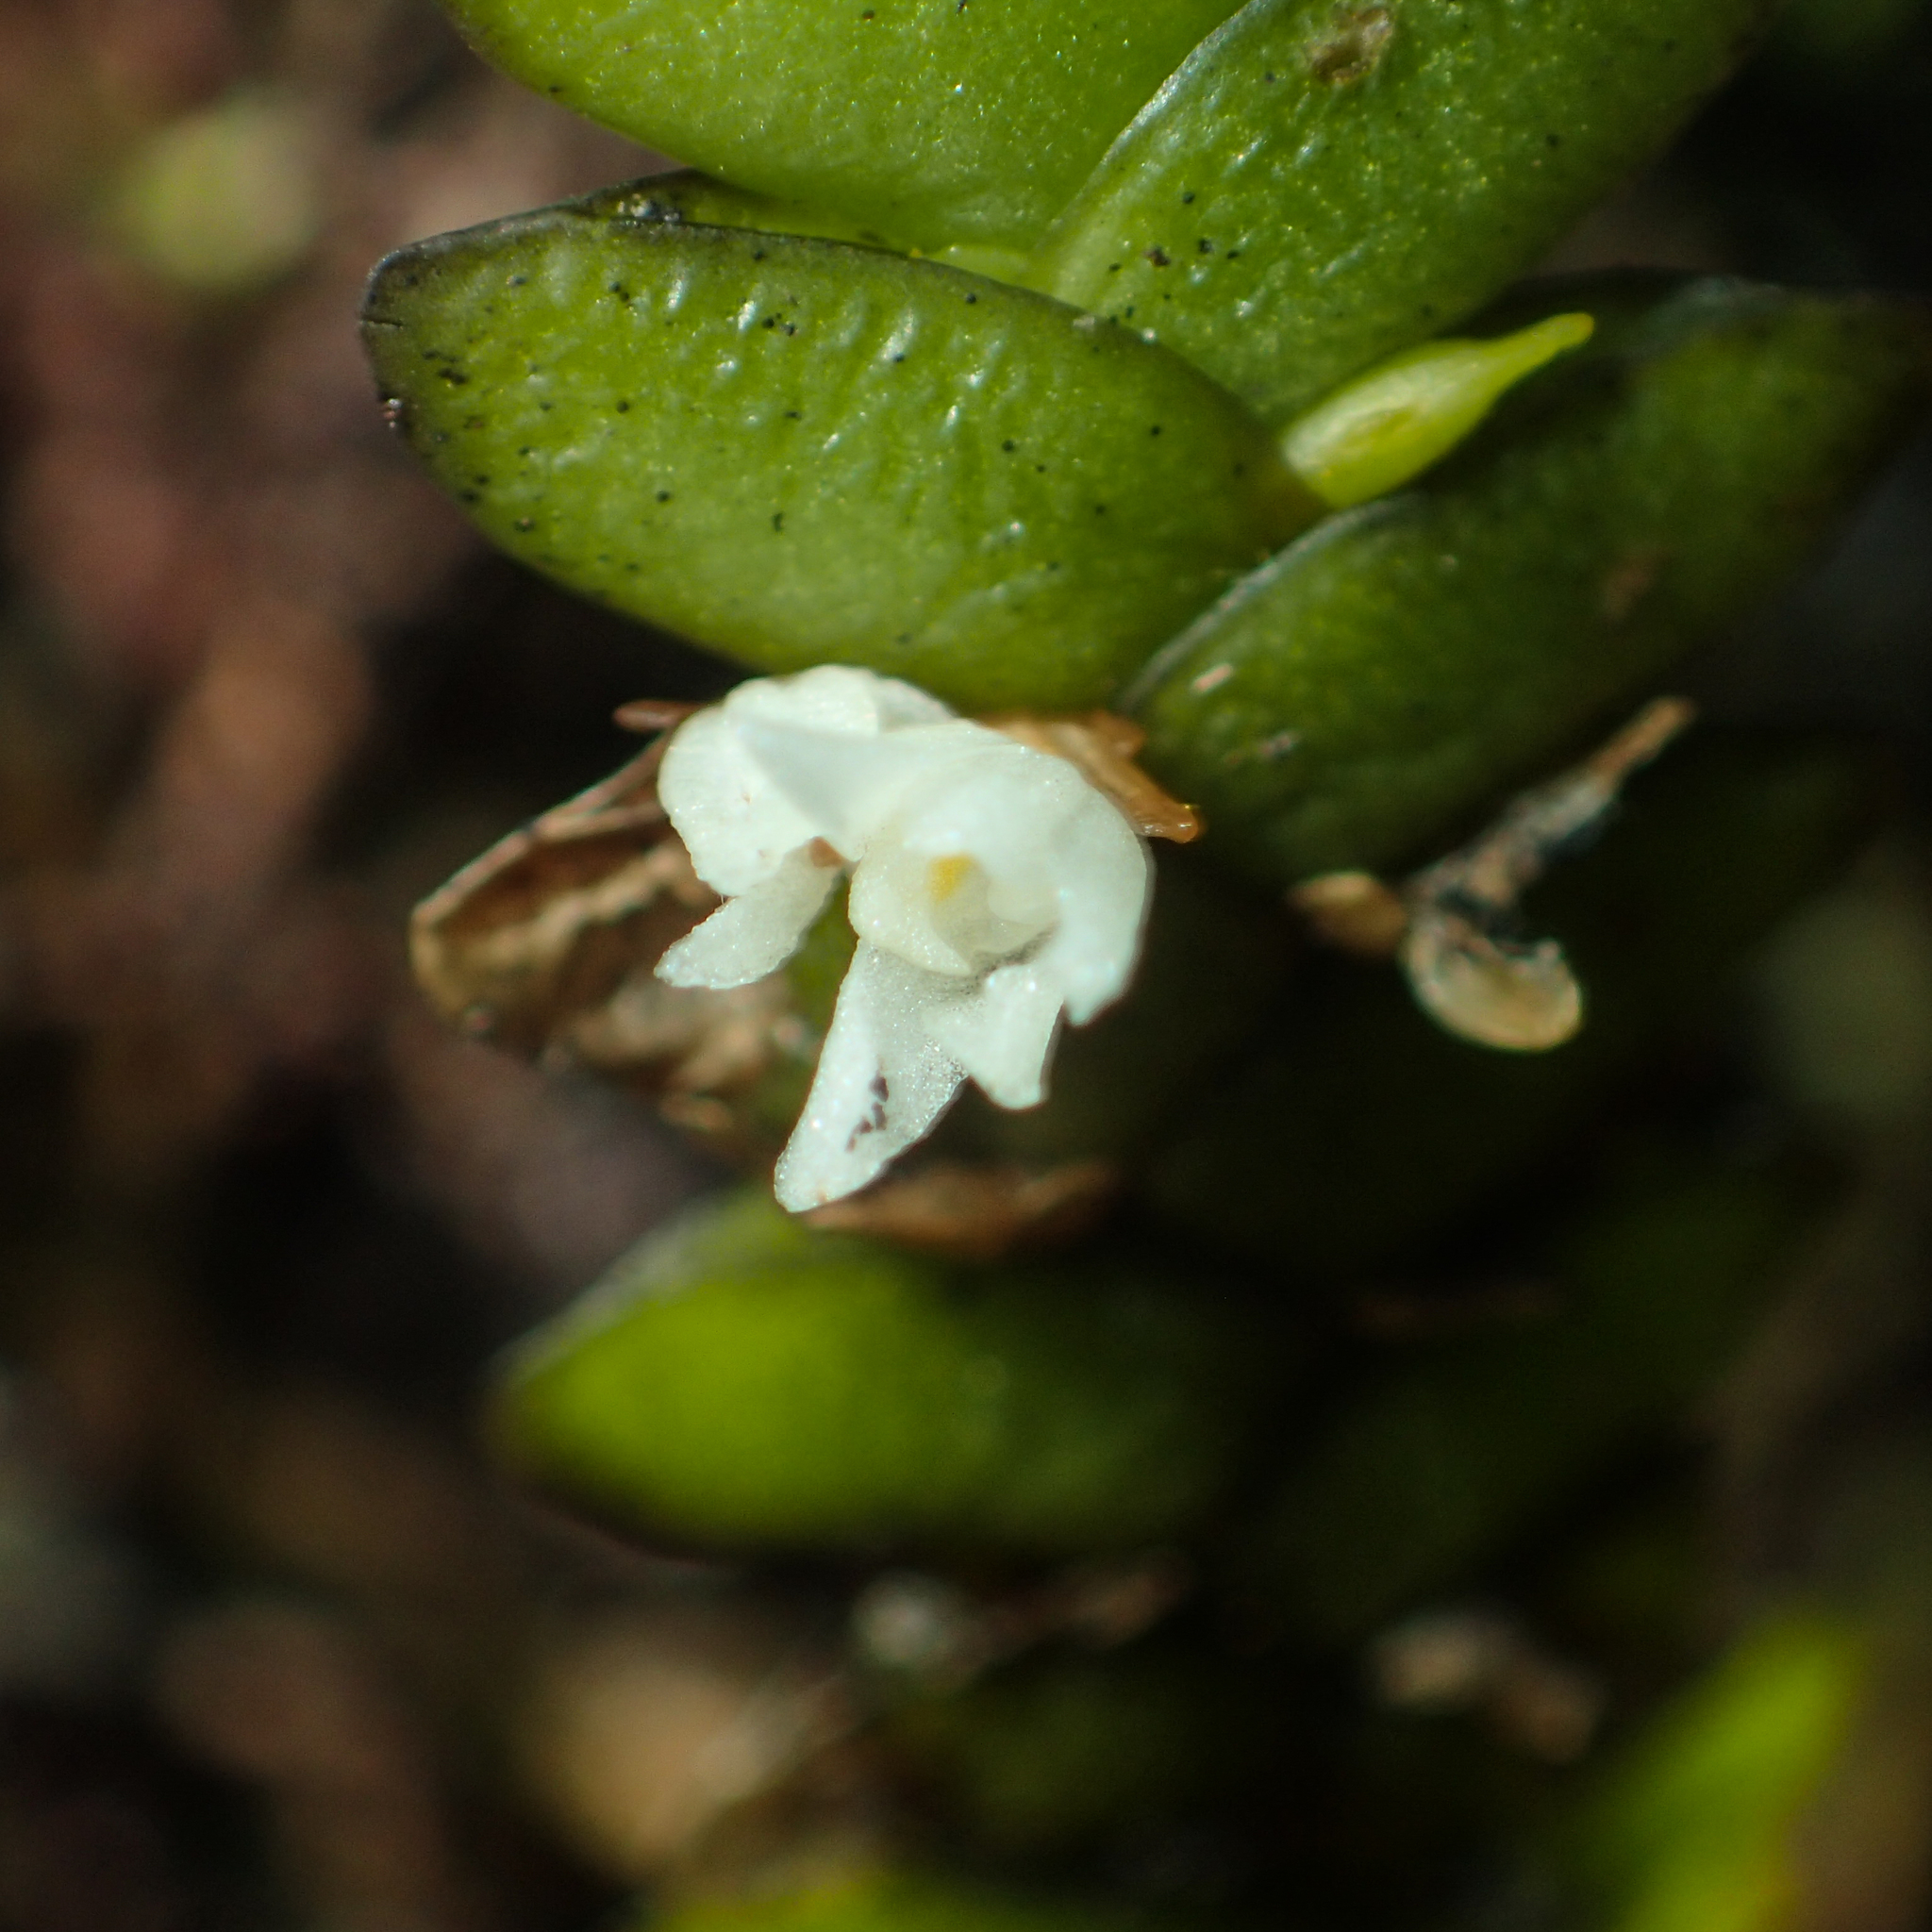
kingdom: Plantae
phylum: Tracheophyta
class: Liliopsida
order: Asparagales
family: Orchidaceae
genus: Microsaccus
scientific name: Microsaccus griffithii
